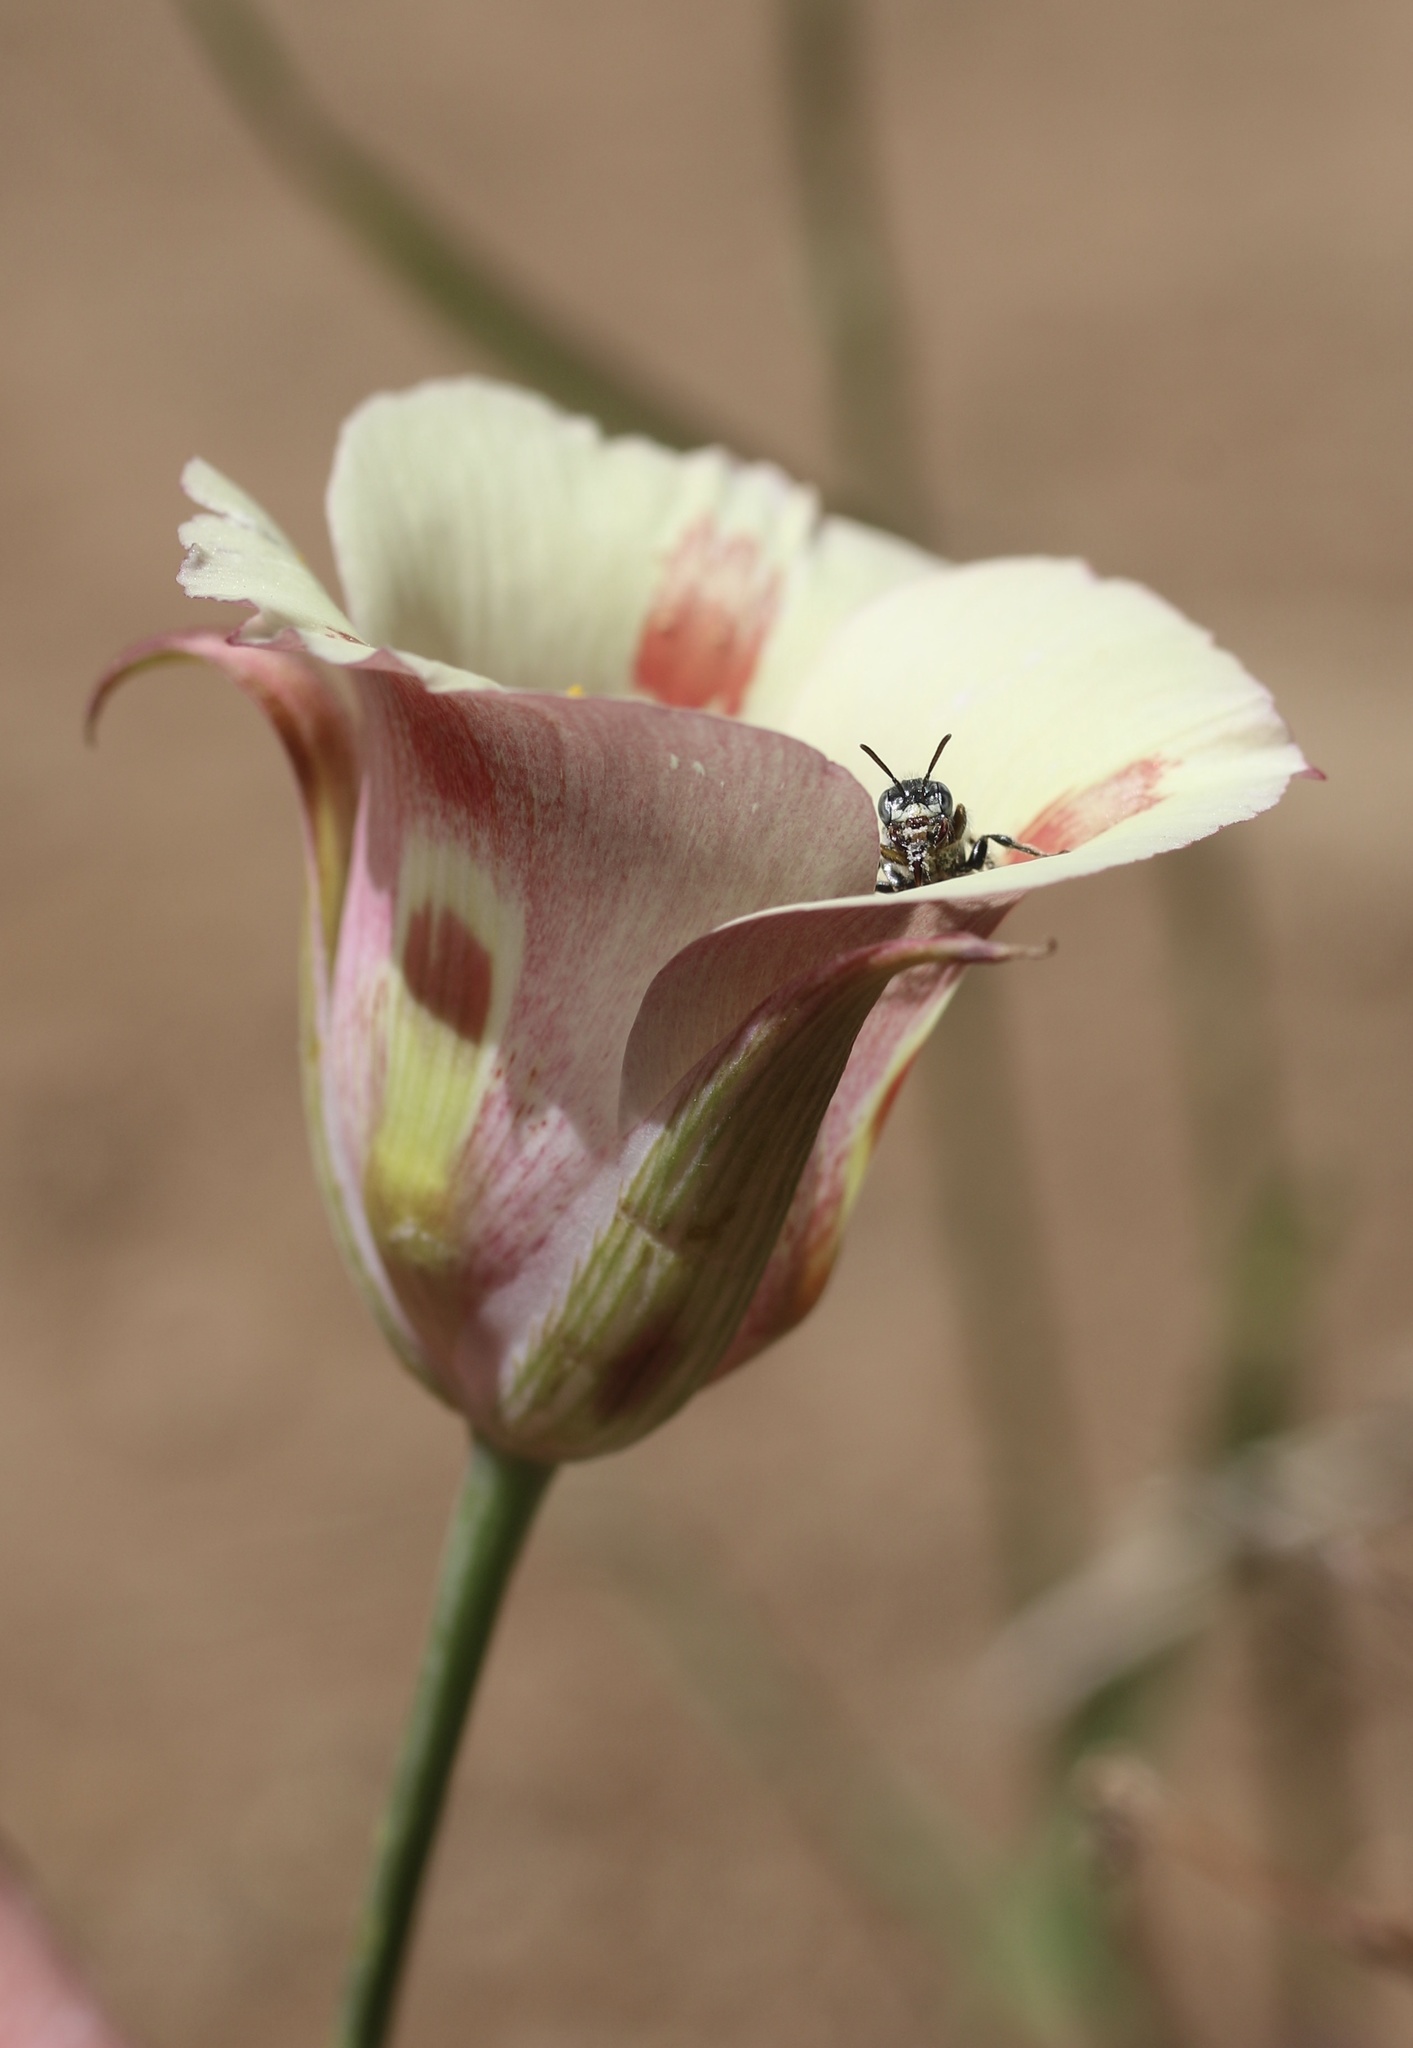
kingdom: Plantae
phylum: Tracheophyta
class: Liliopsida
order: Liliales
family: Liliaceae
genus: Calochortus
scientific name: Calochortus venustus
